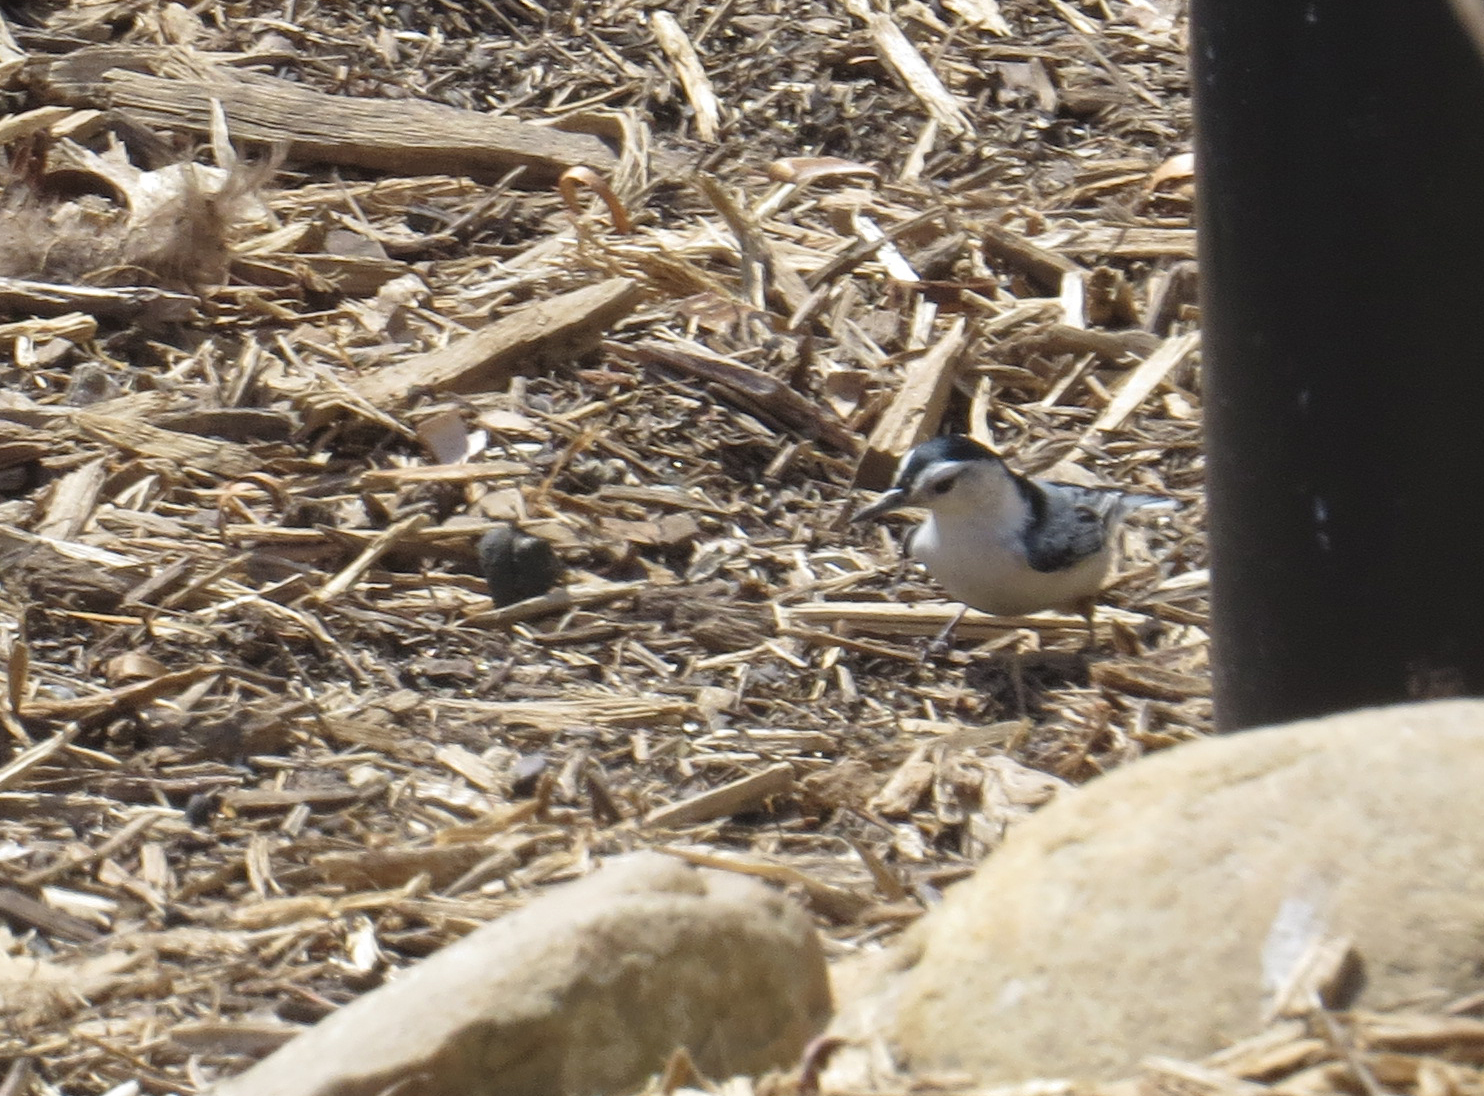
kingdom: Animalia
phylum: Chordata
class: Aves
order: Passeriformes
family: Sittidae
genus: Sitta
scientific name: Sitta carolinensis
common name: White-breasted nuthatch
